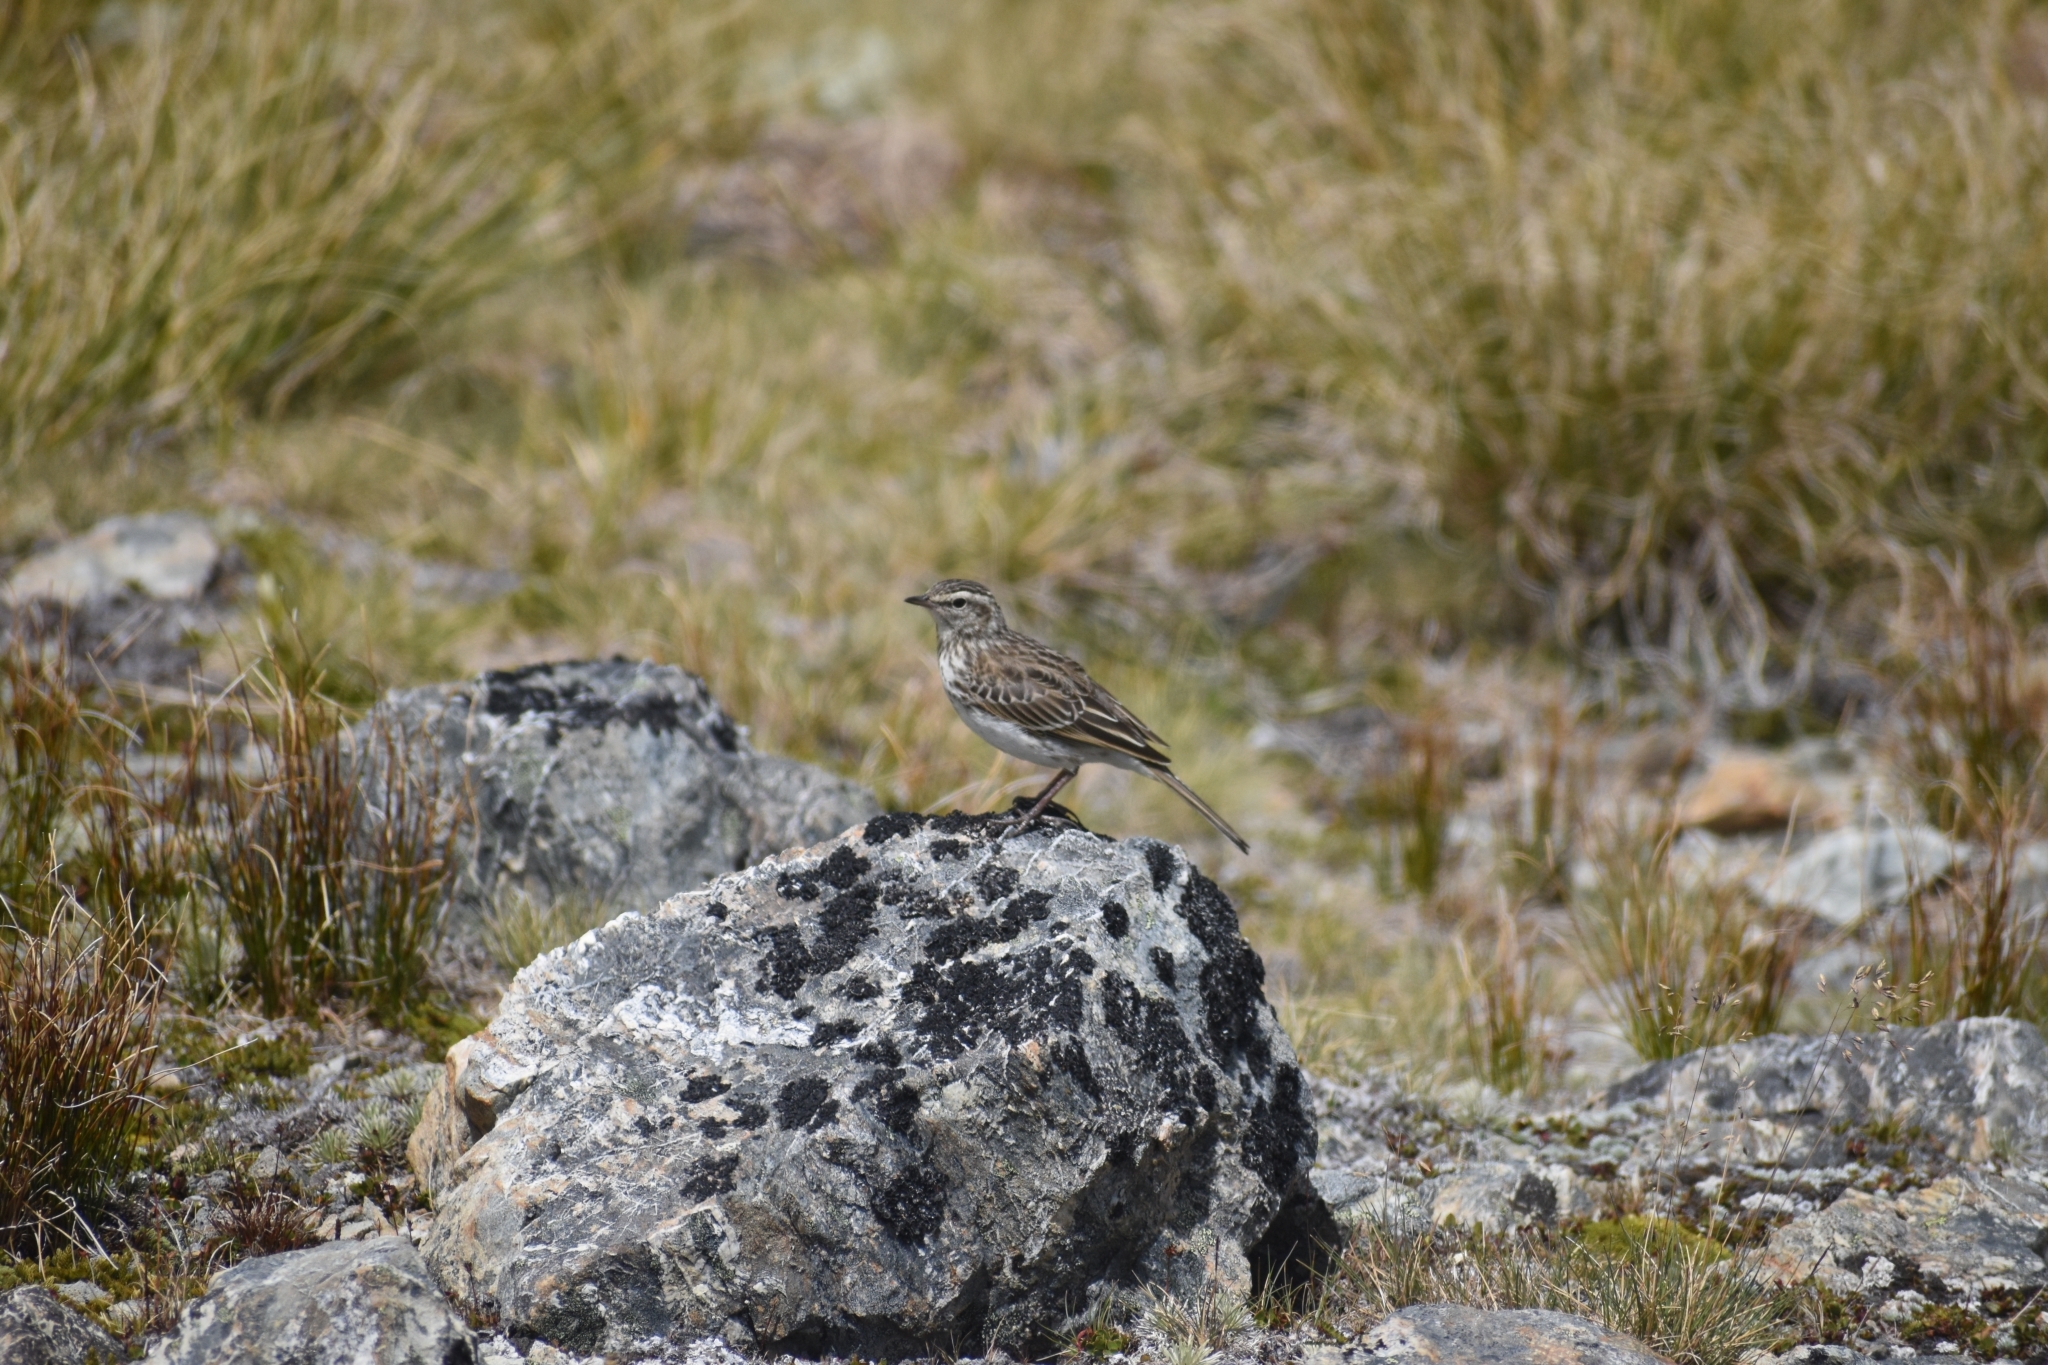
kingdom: Animalia
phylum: Chordata
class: Aves
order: Passeriformes
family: Motacillidae
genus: Anthus
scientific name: Anthus novaeseelandiae
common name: New zealand pipit
